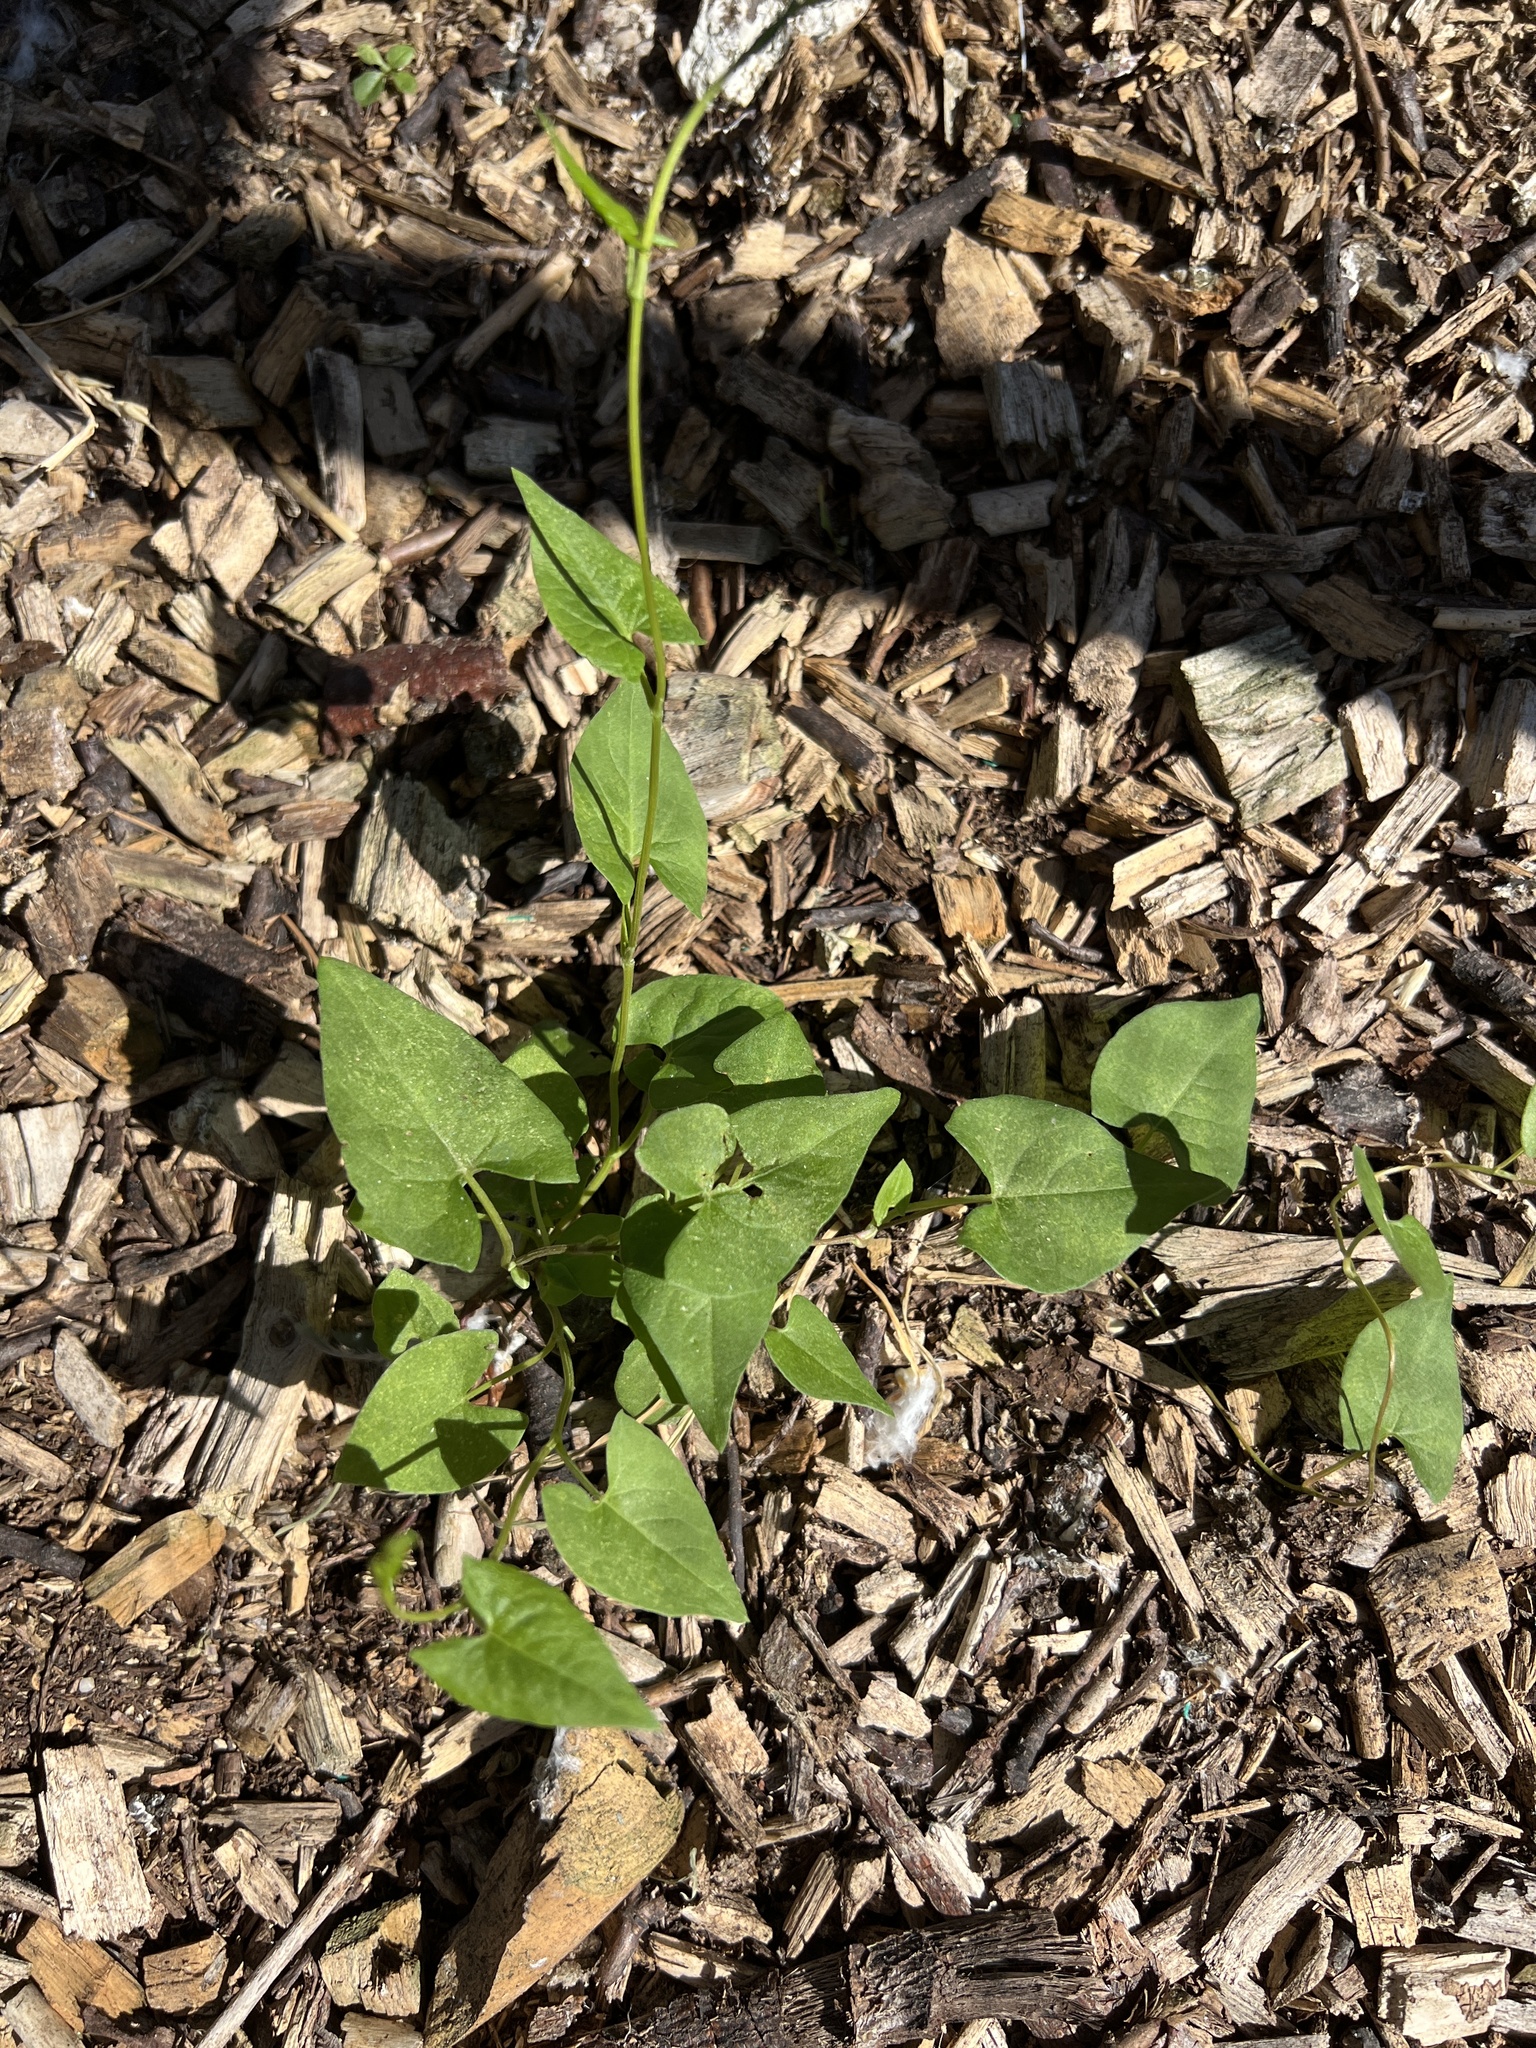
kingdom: Plantae
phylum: Tracheophyta
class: Magnoliopsida
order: Caryophyllales
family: Polygonaceae
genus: Fallopia
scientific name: Fallopia convolvulus
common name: Black bindweed
